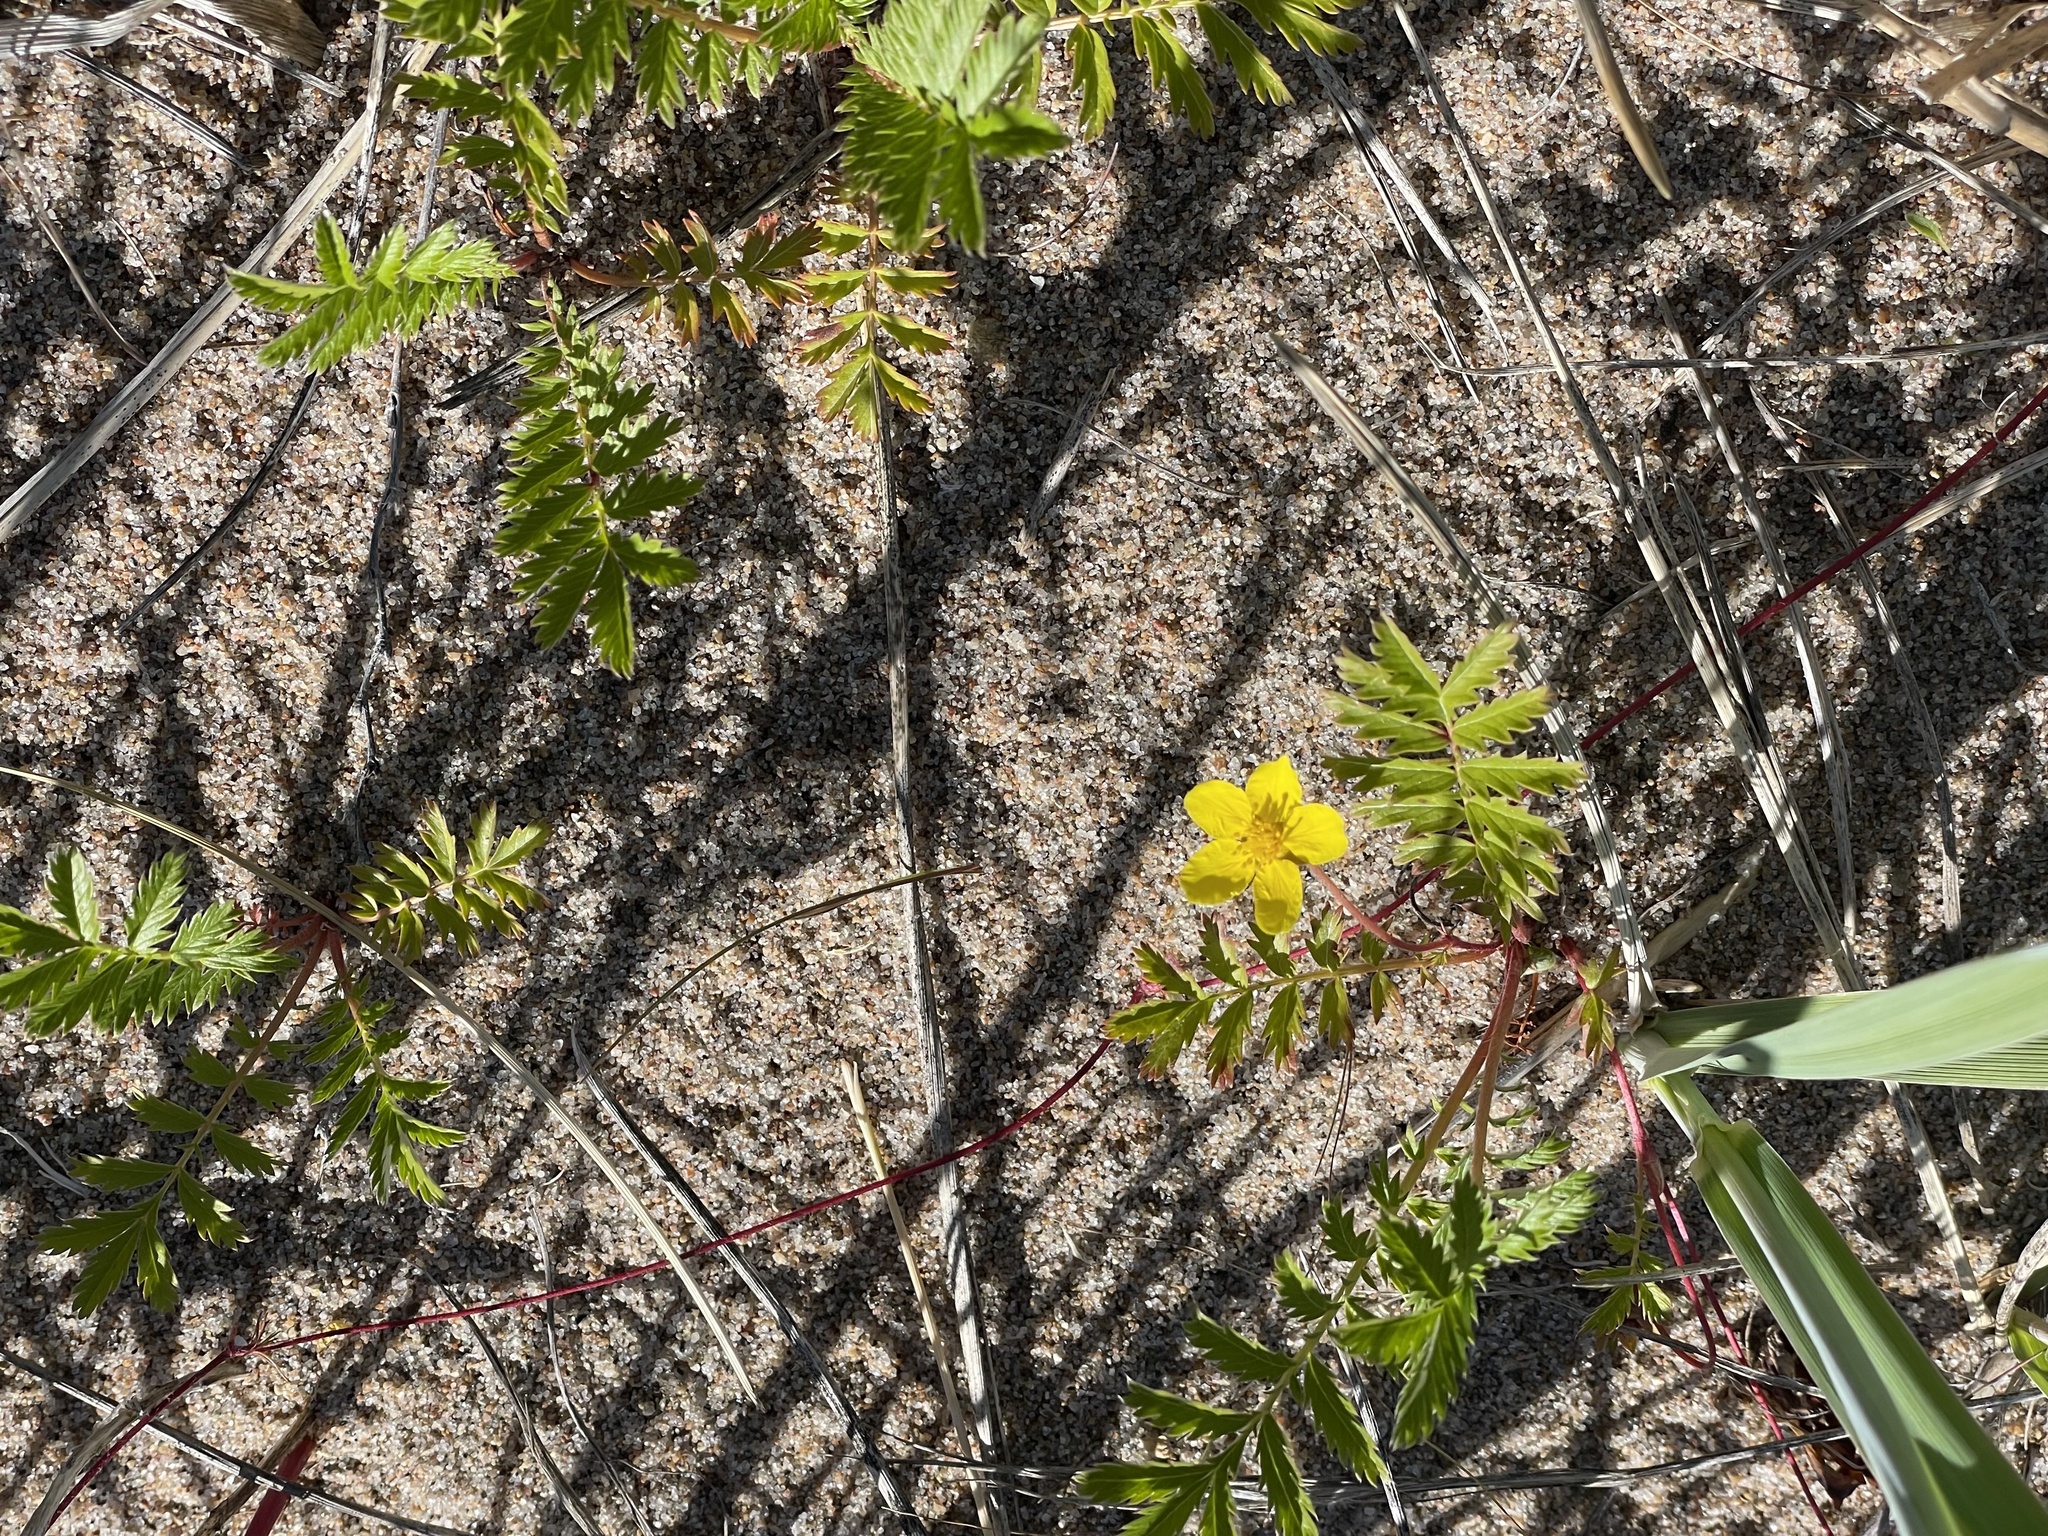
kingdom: Plantae
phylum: Tracheophyta
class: Magnoliopsida
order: Rosales
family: Rosaceae
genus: Argentina
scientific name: Argentina anserina
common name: Common silverweed
